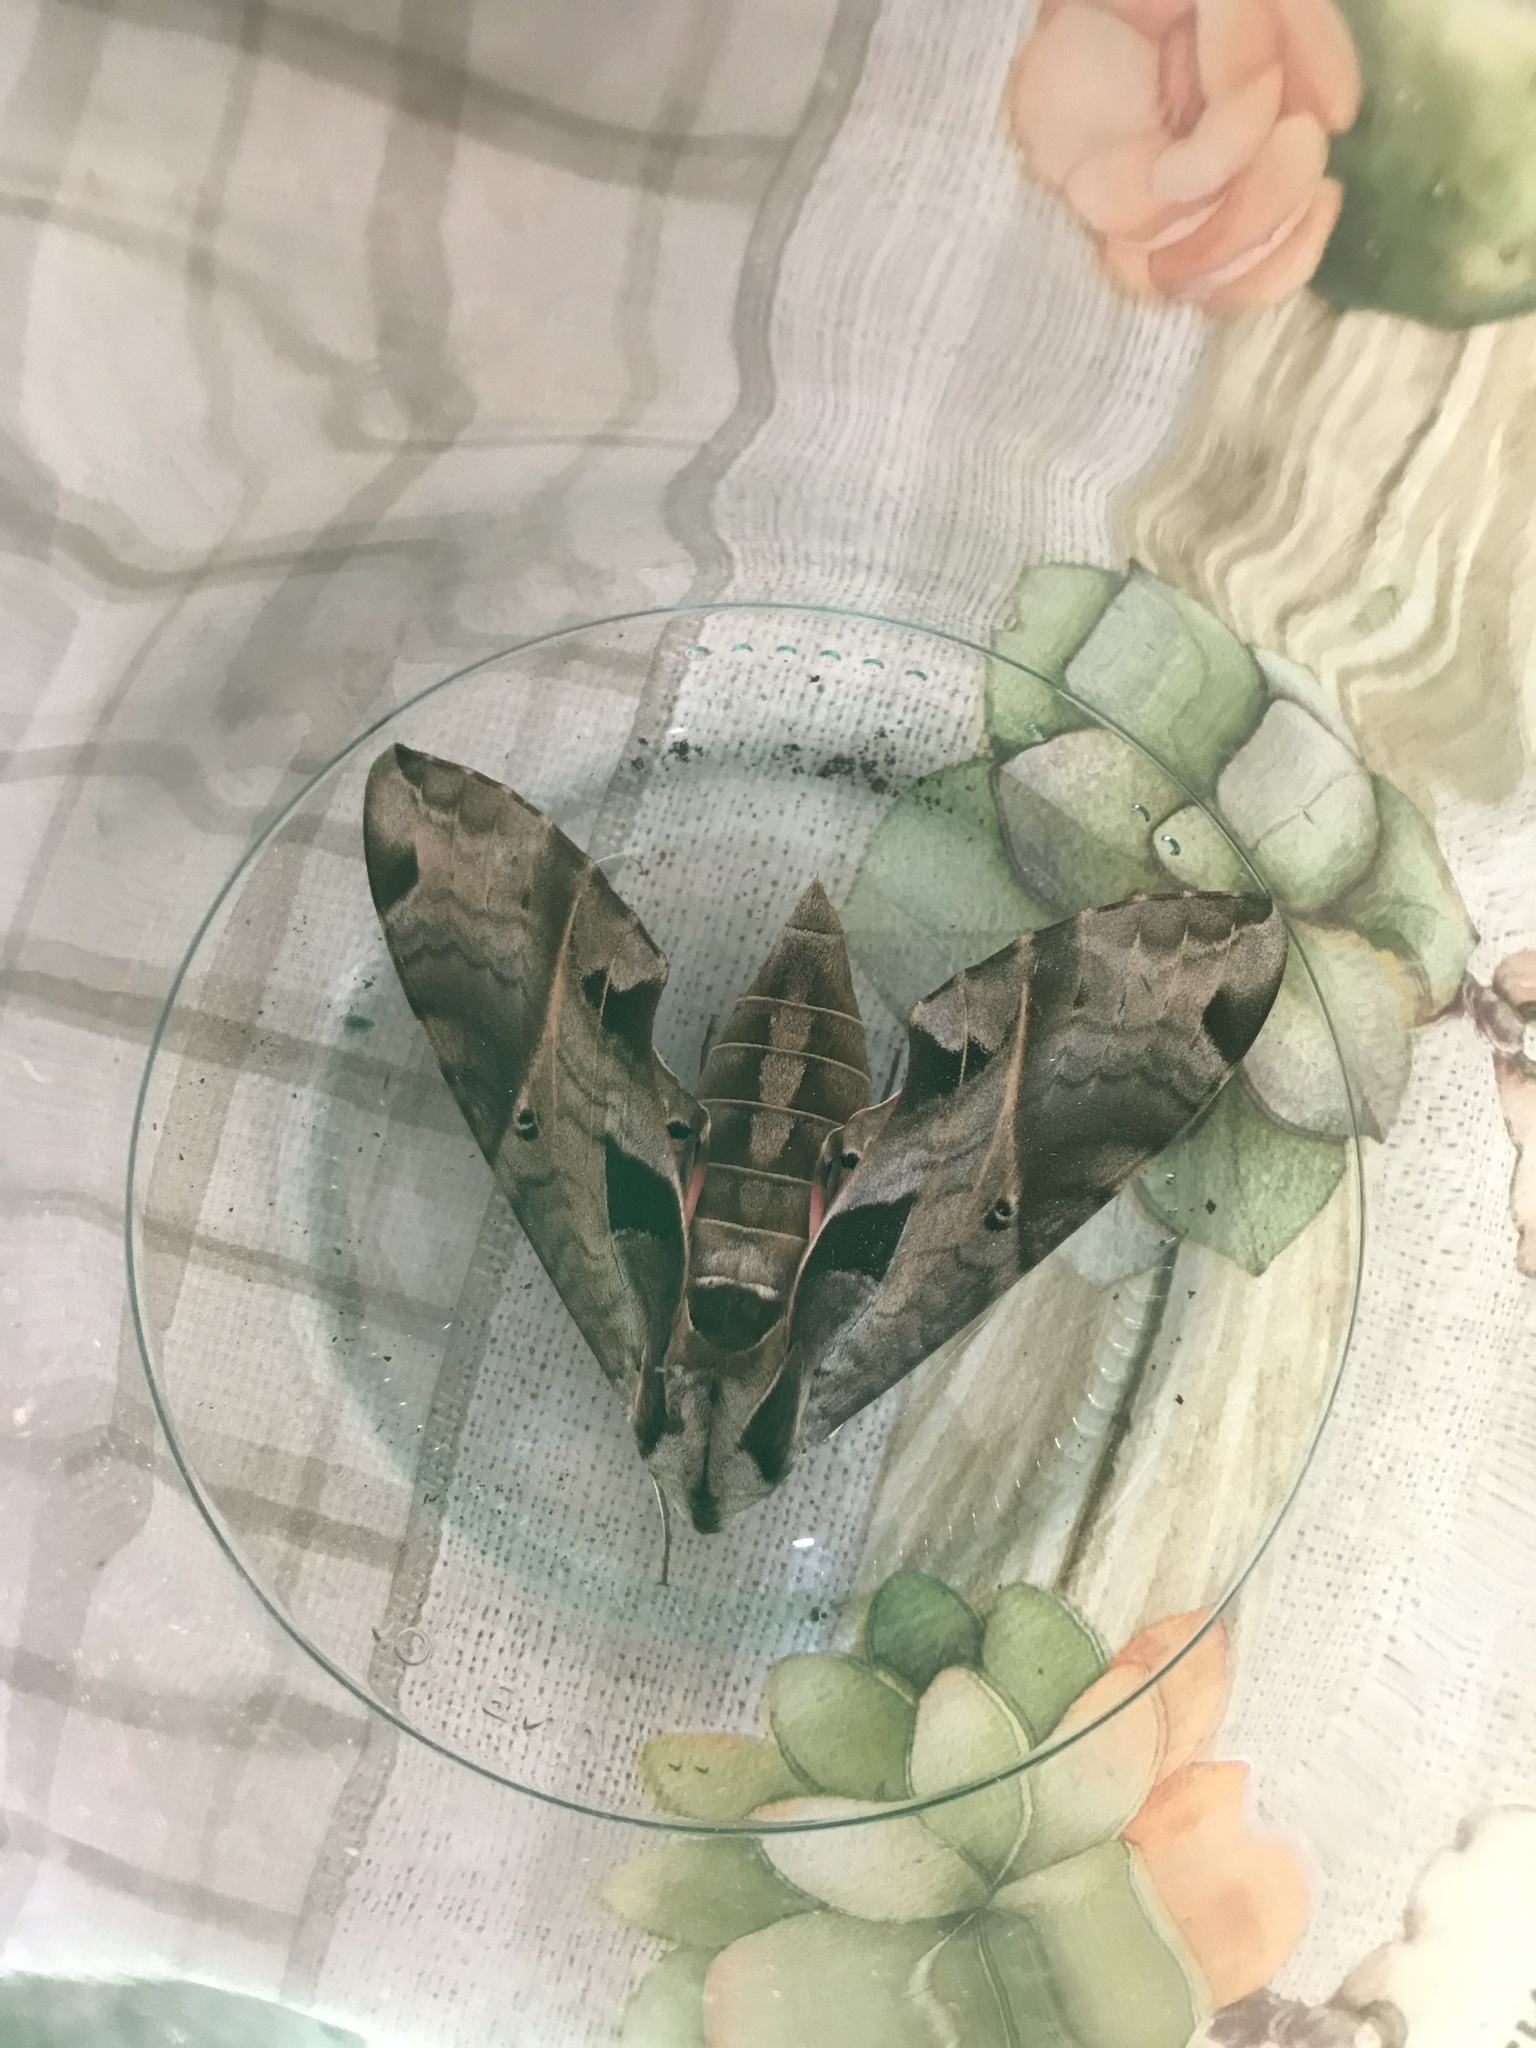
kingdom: Animalia
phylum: Arthropoda
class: Insecta
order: Lepidoptera
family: Sphingidae
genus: Eumorpha
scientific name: Eumorpha analis
